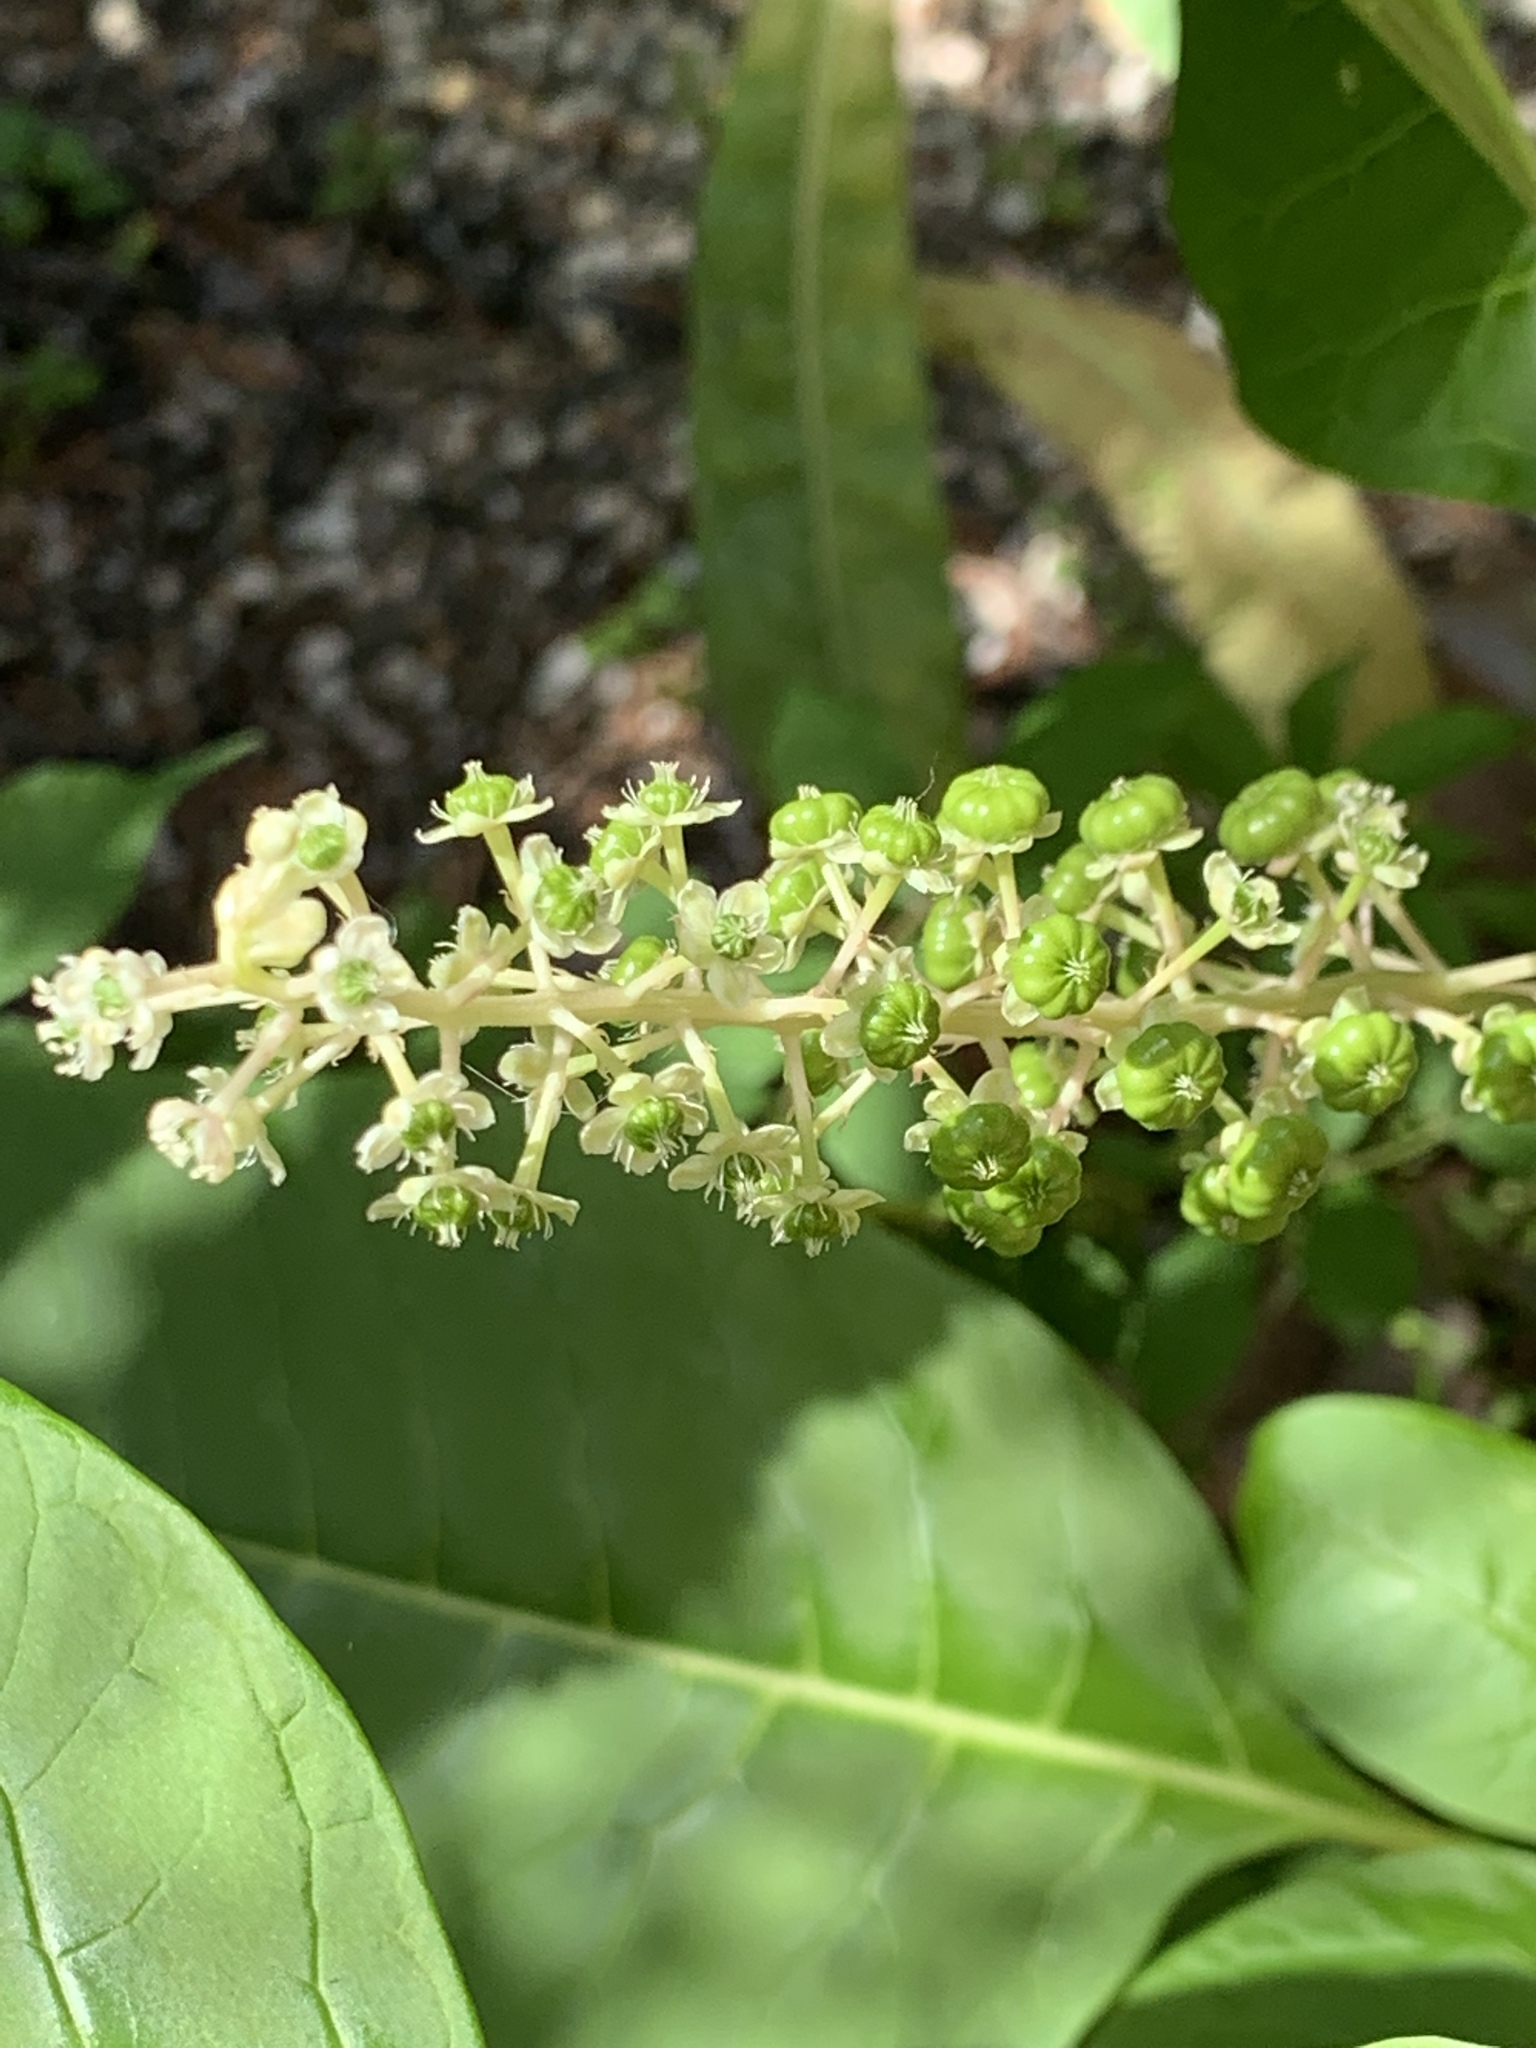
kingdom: Plantae
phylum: Tracheophyta
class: Magnoliopsida
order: Caryophyllales
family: Phytolaccaceae
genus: Phytolacca
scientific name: Phytolacca americana
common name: American pokeweed
